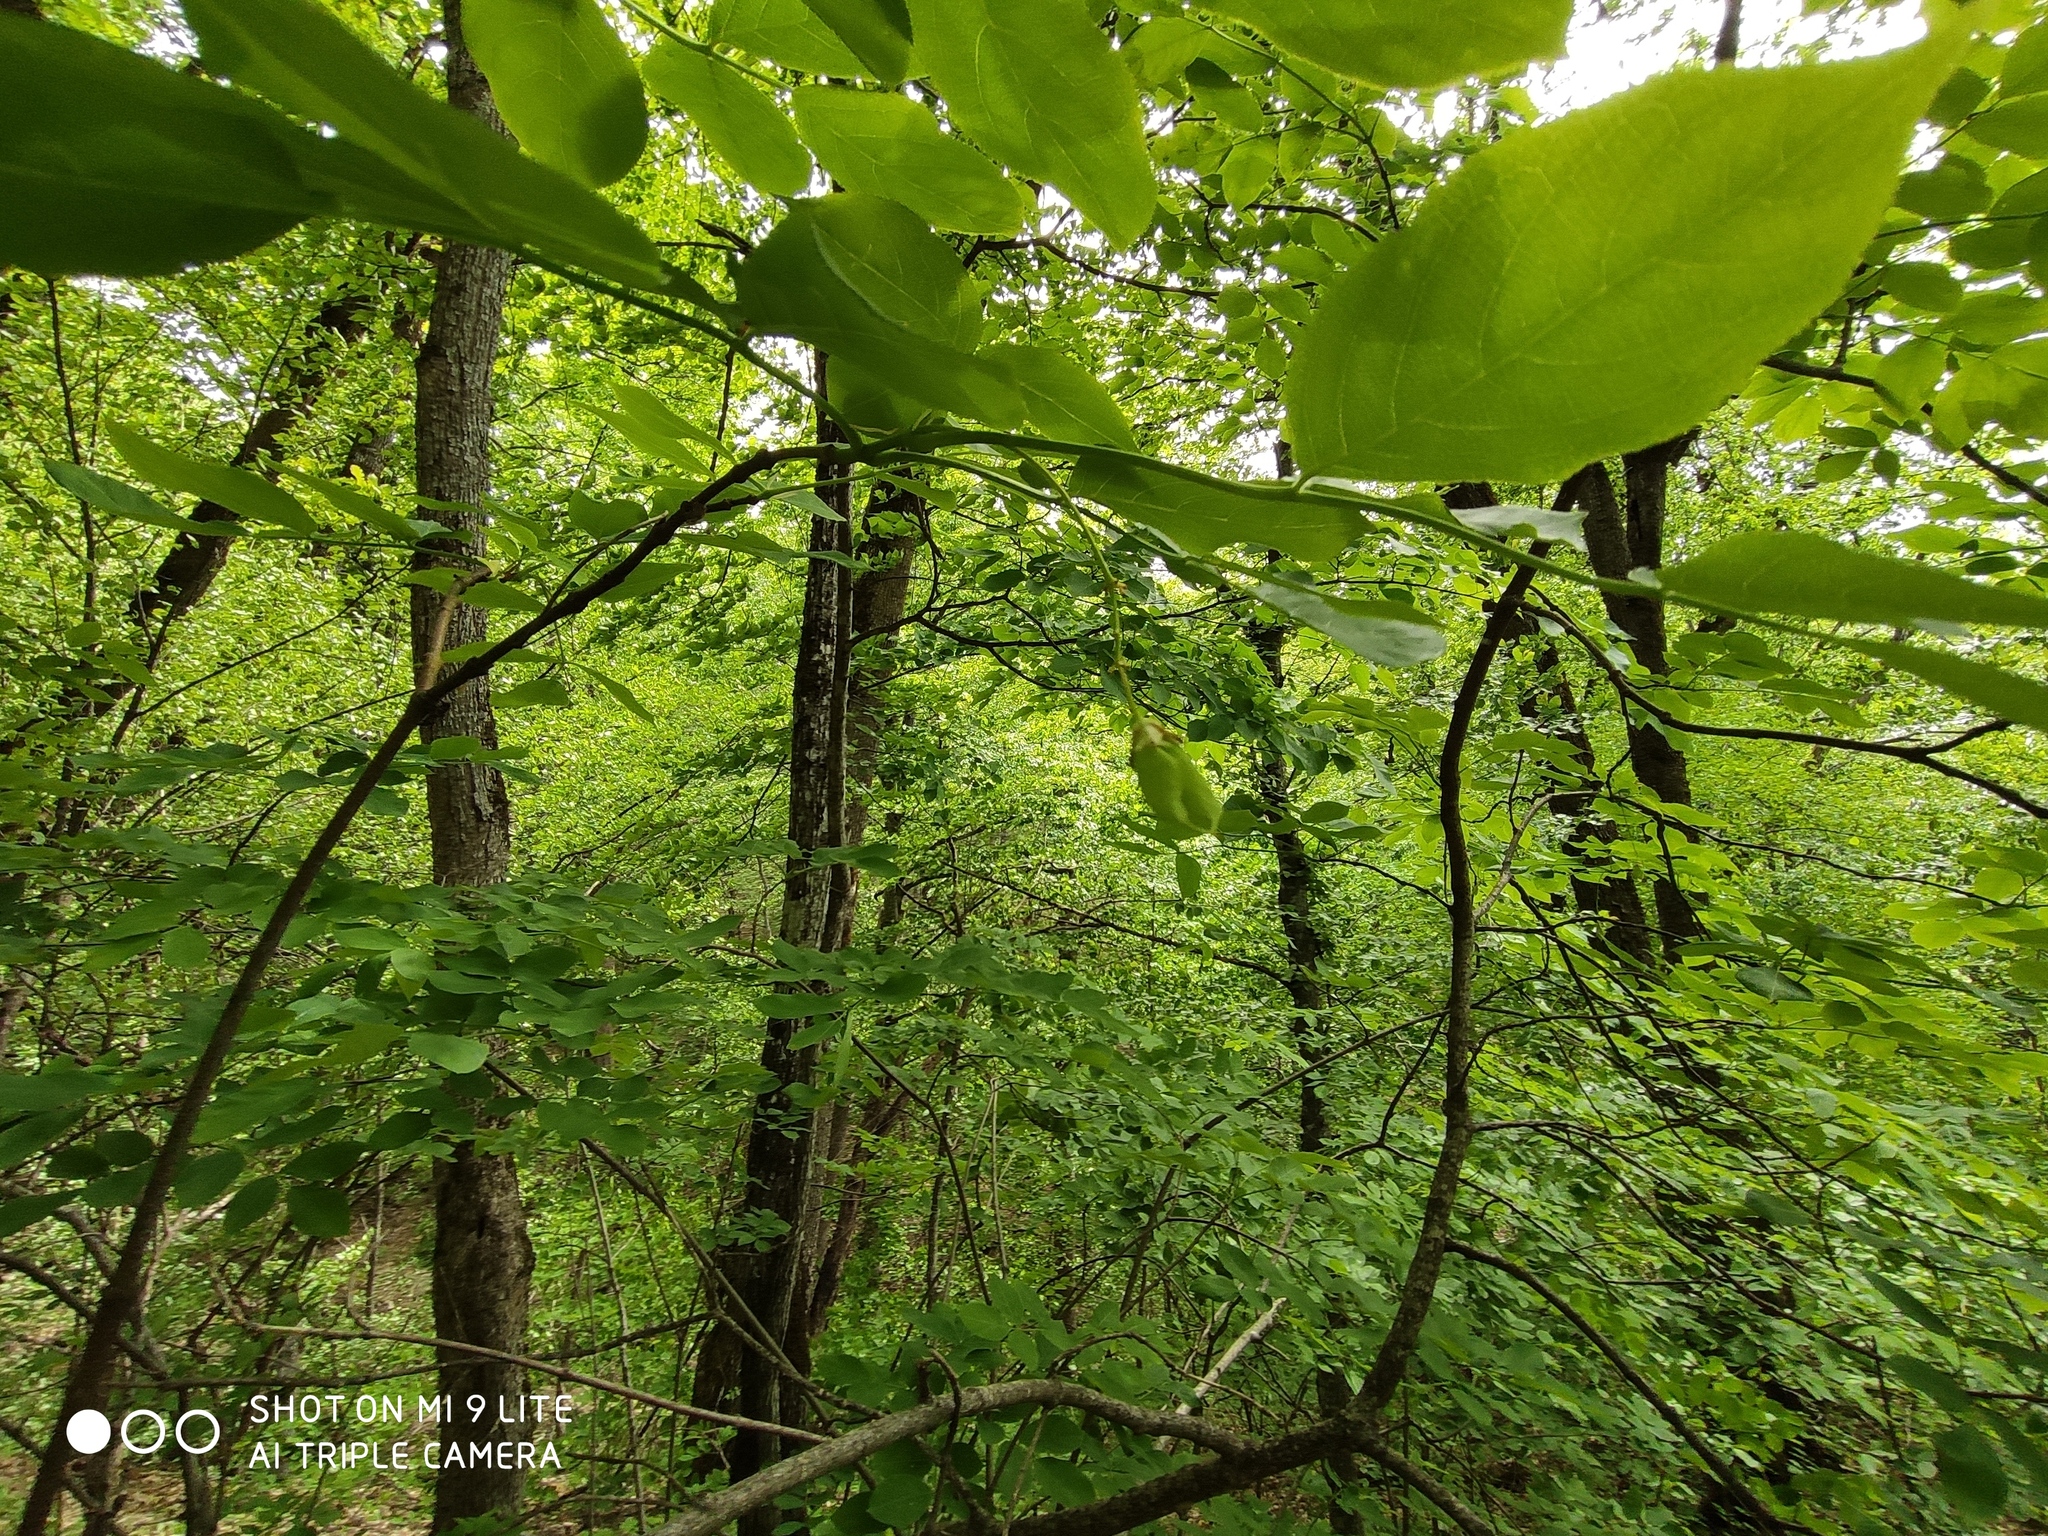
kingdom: Plantae
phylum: Tracheophyta
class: Magnoliopsida
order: Crossosomatales
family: Staphyleaceae
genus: Staphylea
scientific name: Staphylea colchica
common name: Caucasian bladdernut
